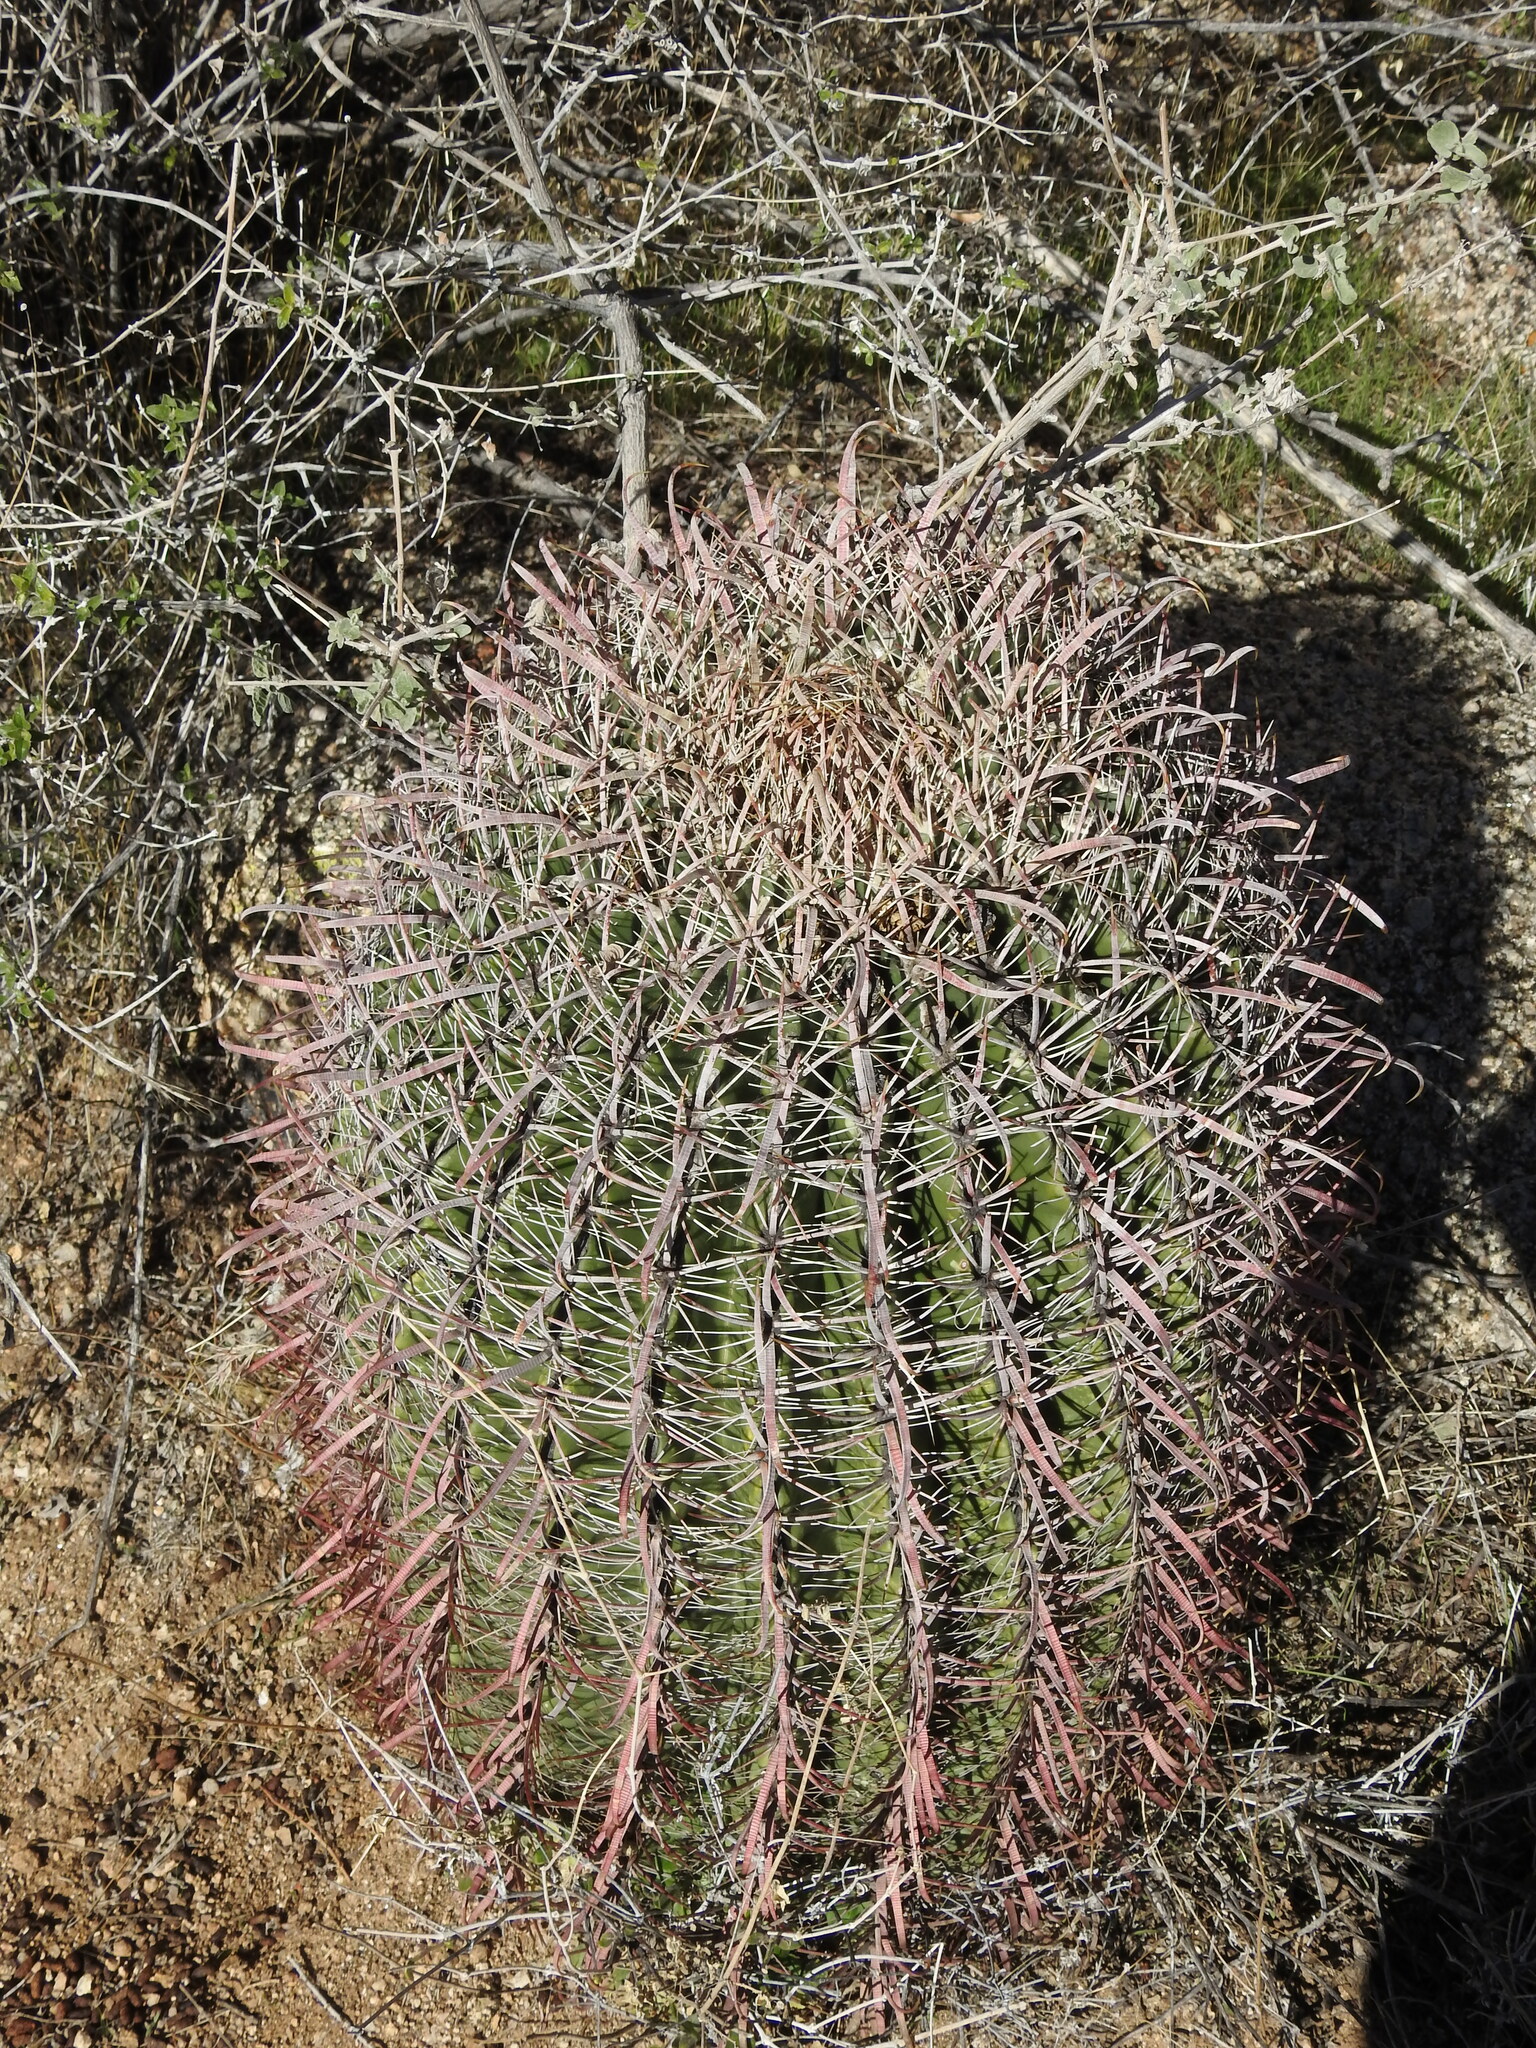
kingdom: Plantae
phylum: Tracheophyta
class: Magnoliopsida
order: Caryophyllales
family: Cactaceae
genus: Ferocactus
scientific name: Ferocactus cylindraceus
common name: California barrel cactus
